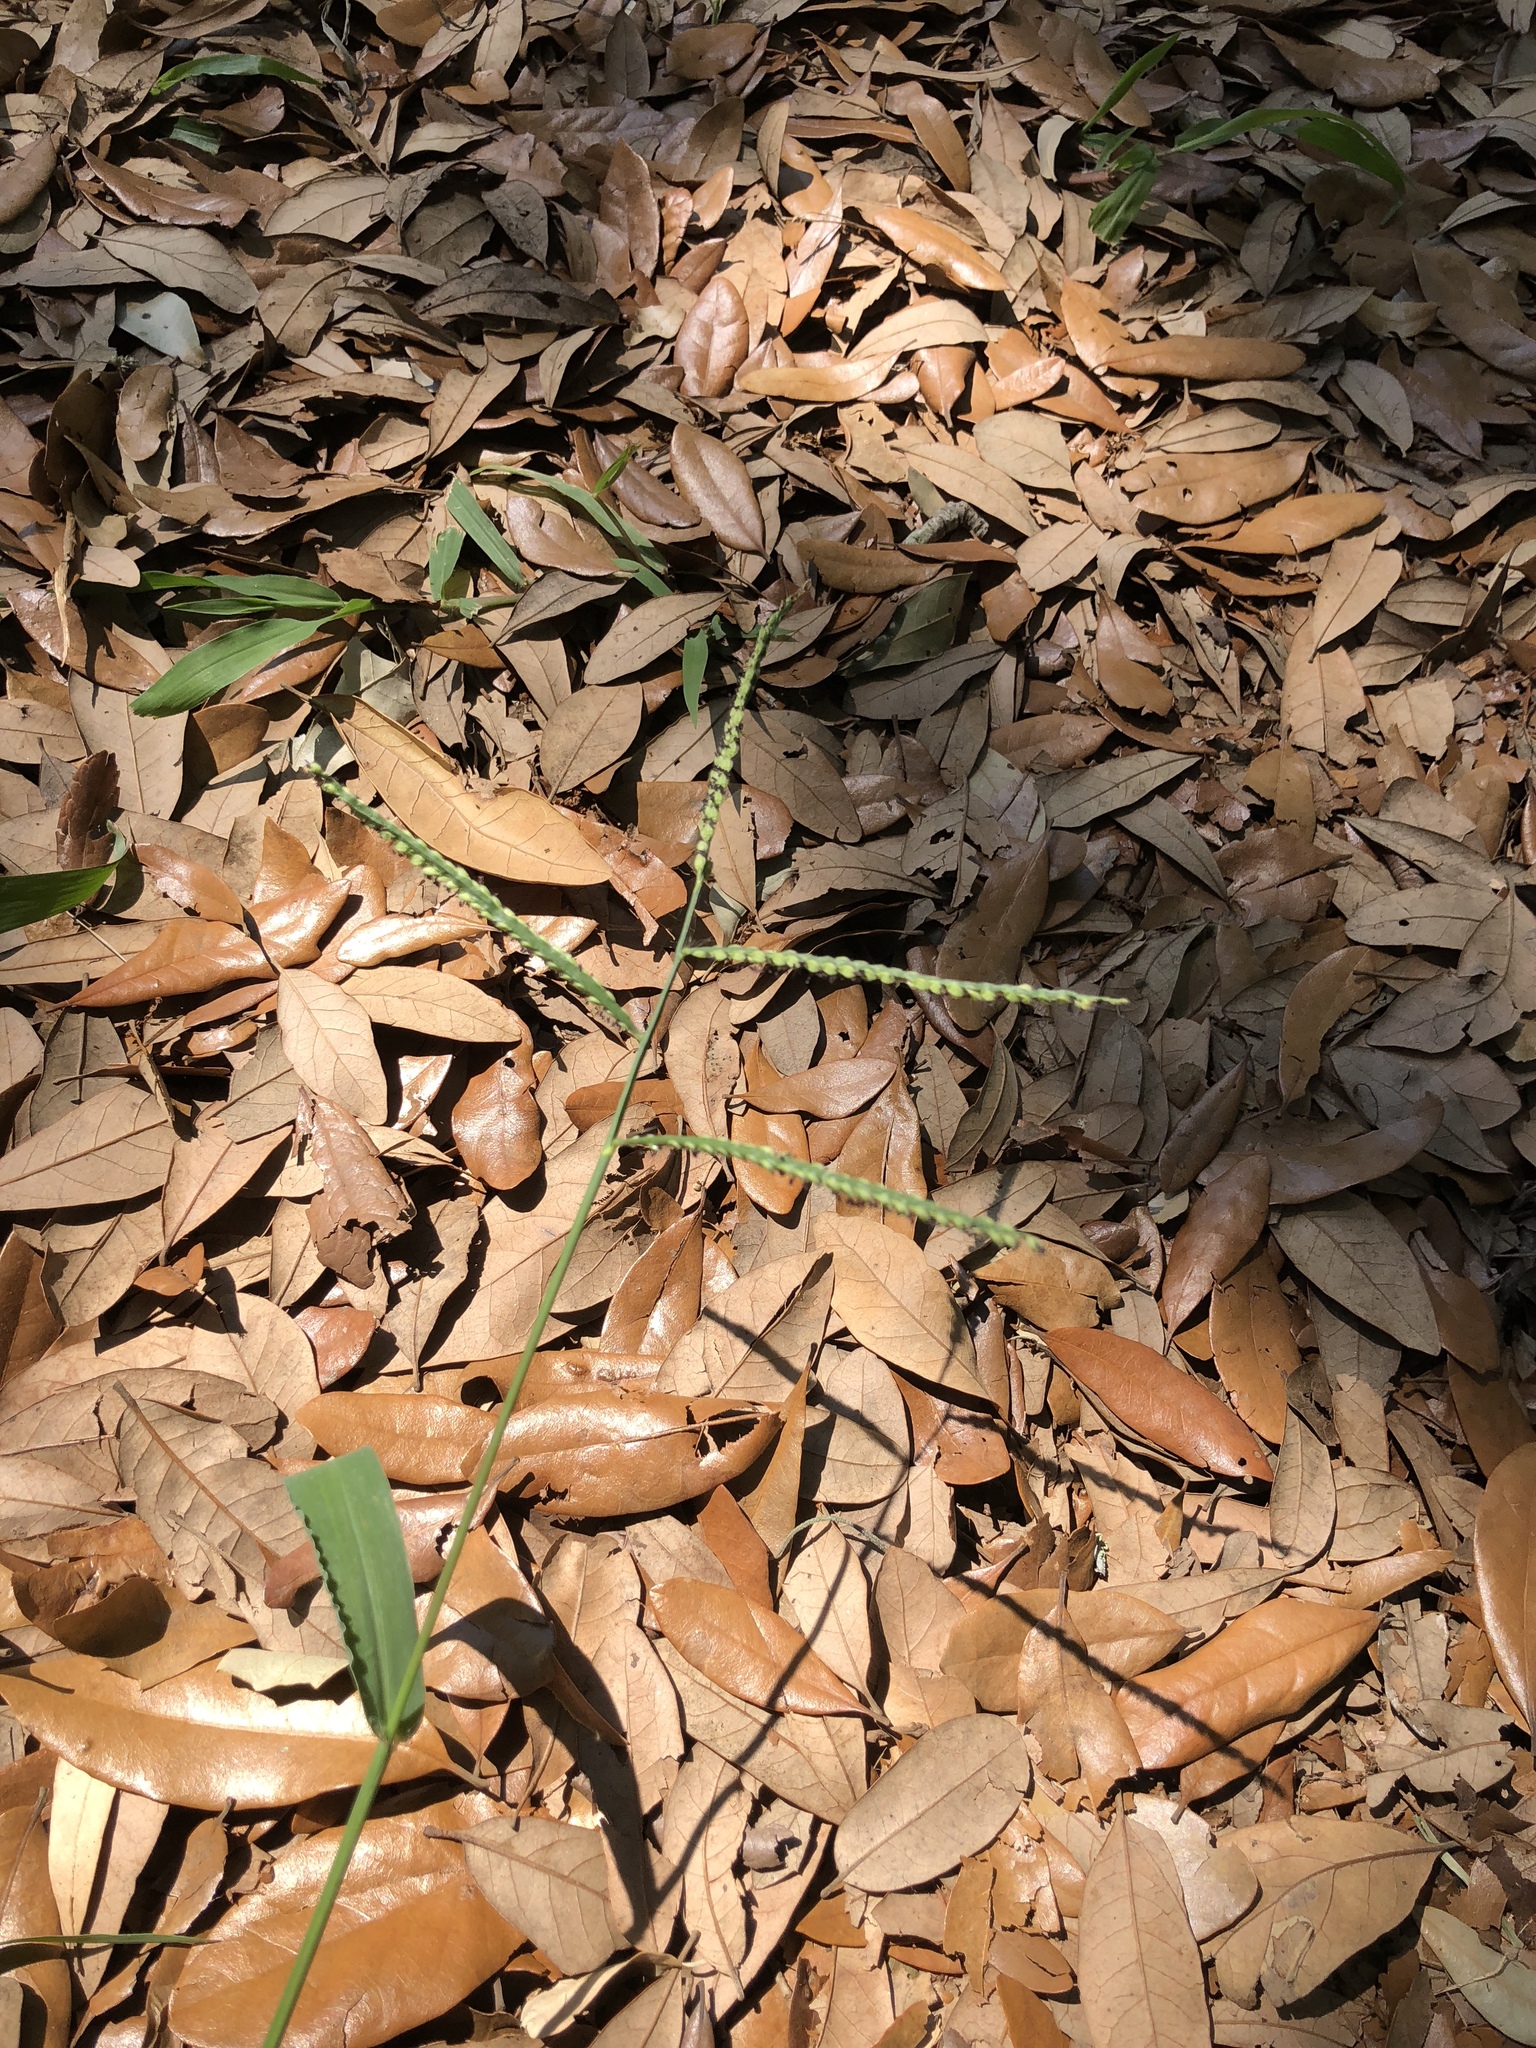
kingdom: Plantae
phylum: Tracheophyta
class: Liliopsida
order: Poales
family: Poaceae
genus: Paspalum
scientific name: Paspalum dilatatum
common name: Dallisgrass
